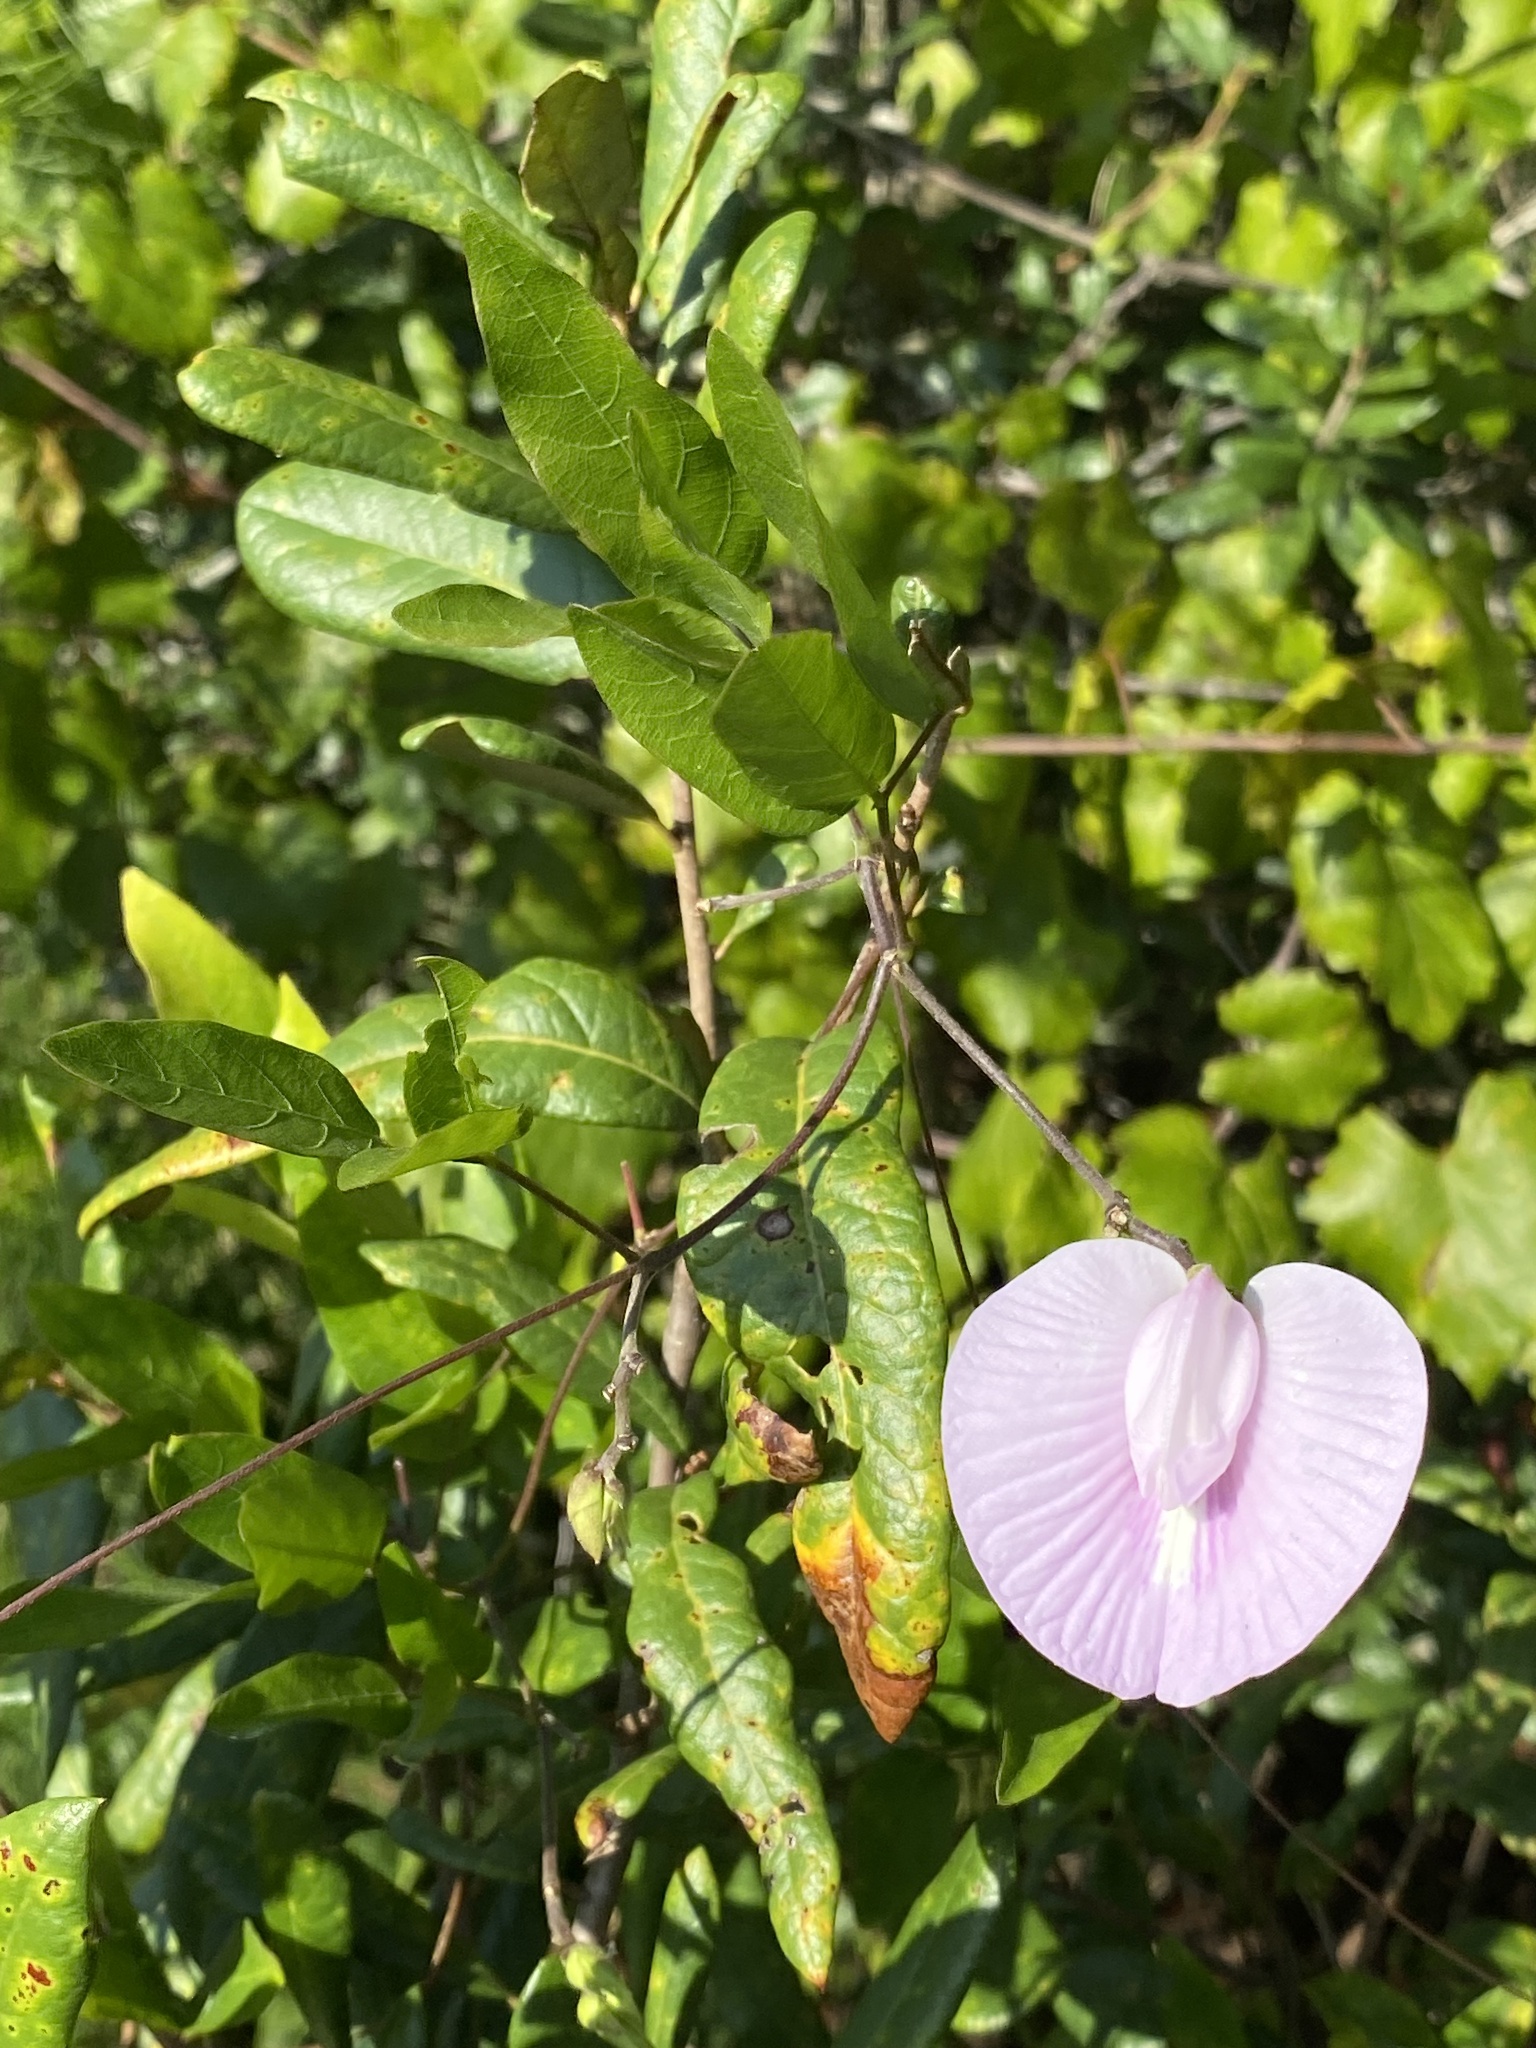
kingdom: Plantae
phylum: Tracheophyta
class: Magnoliopsida
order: Fabales
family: Fabaceae
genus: Centrosema
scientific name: Centrosema arenicola
